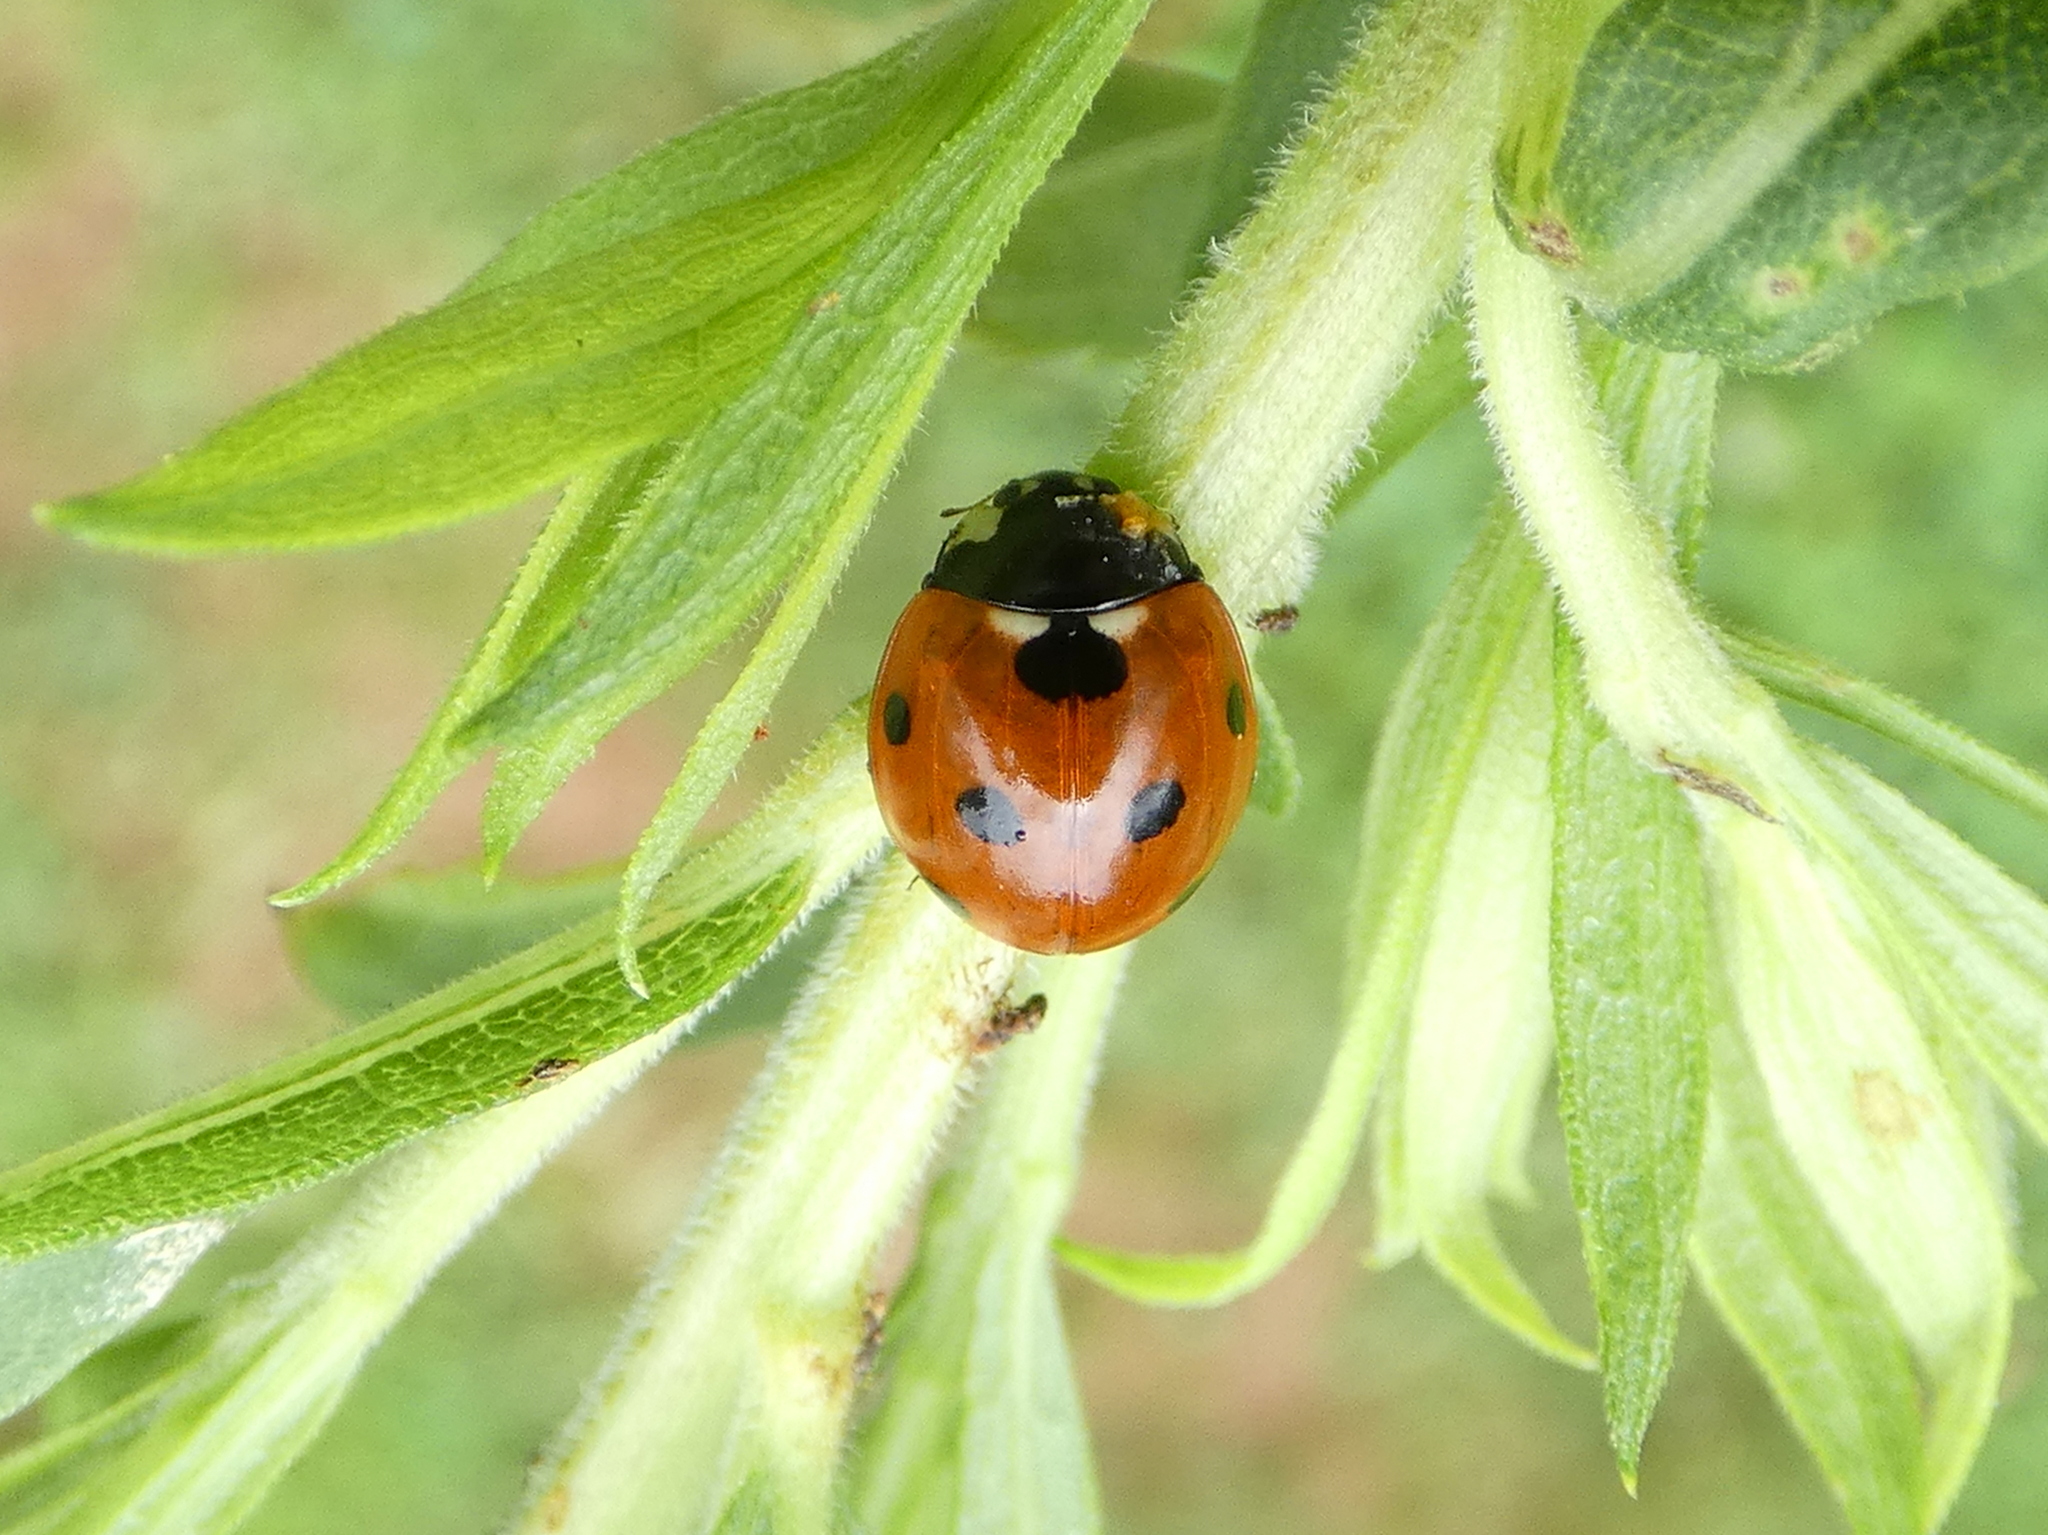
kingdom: Animalia
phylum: Arthropoda
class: Insecta
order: Coleoptera
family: Coccinellidae
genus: Coccinella
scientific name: Coccinella septempunctata
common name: Sevenspotted lady beetle
